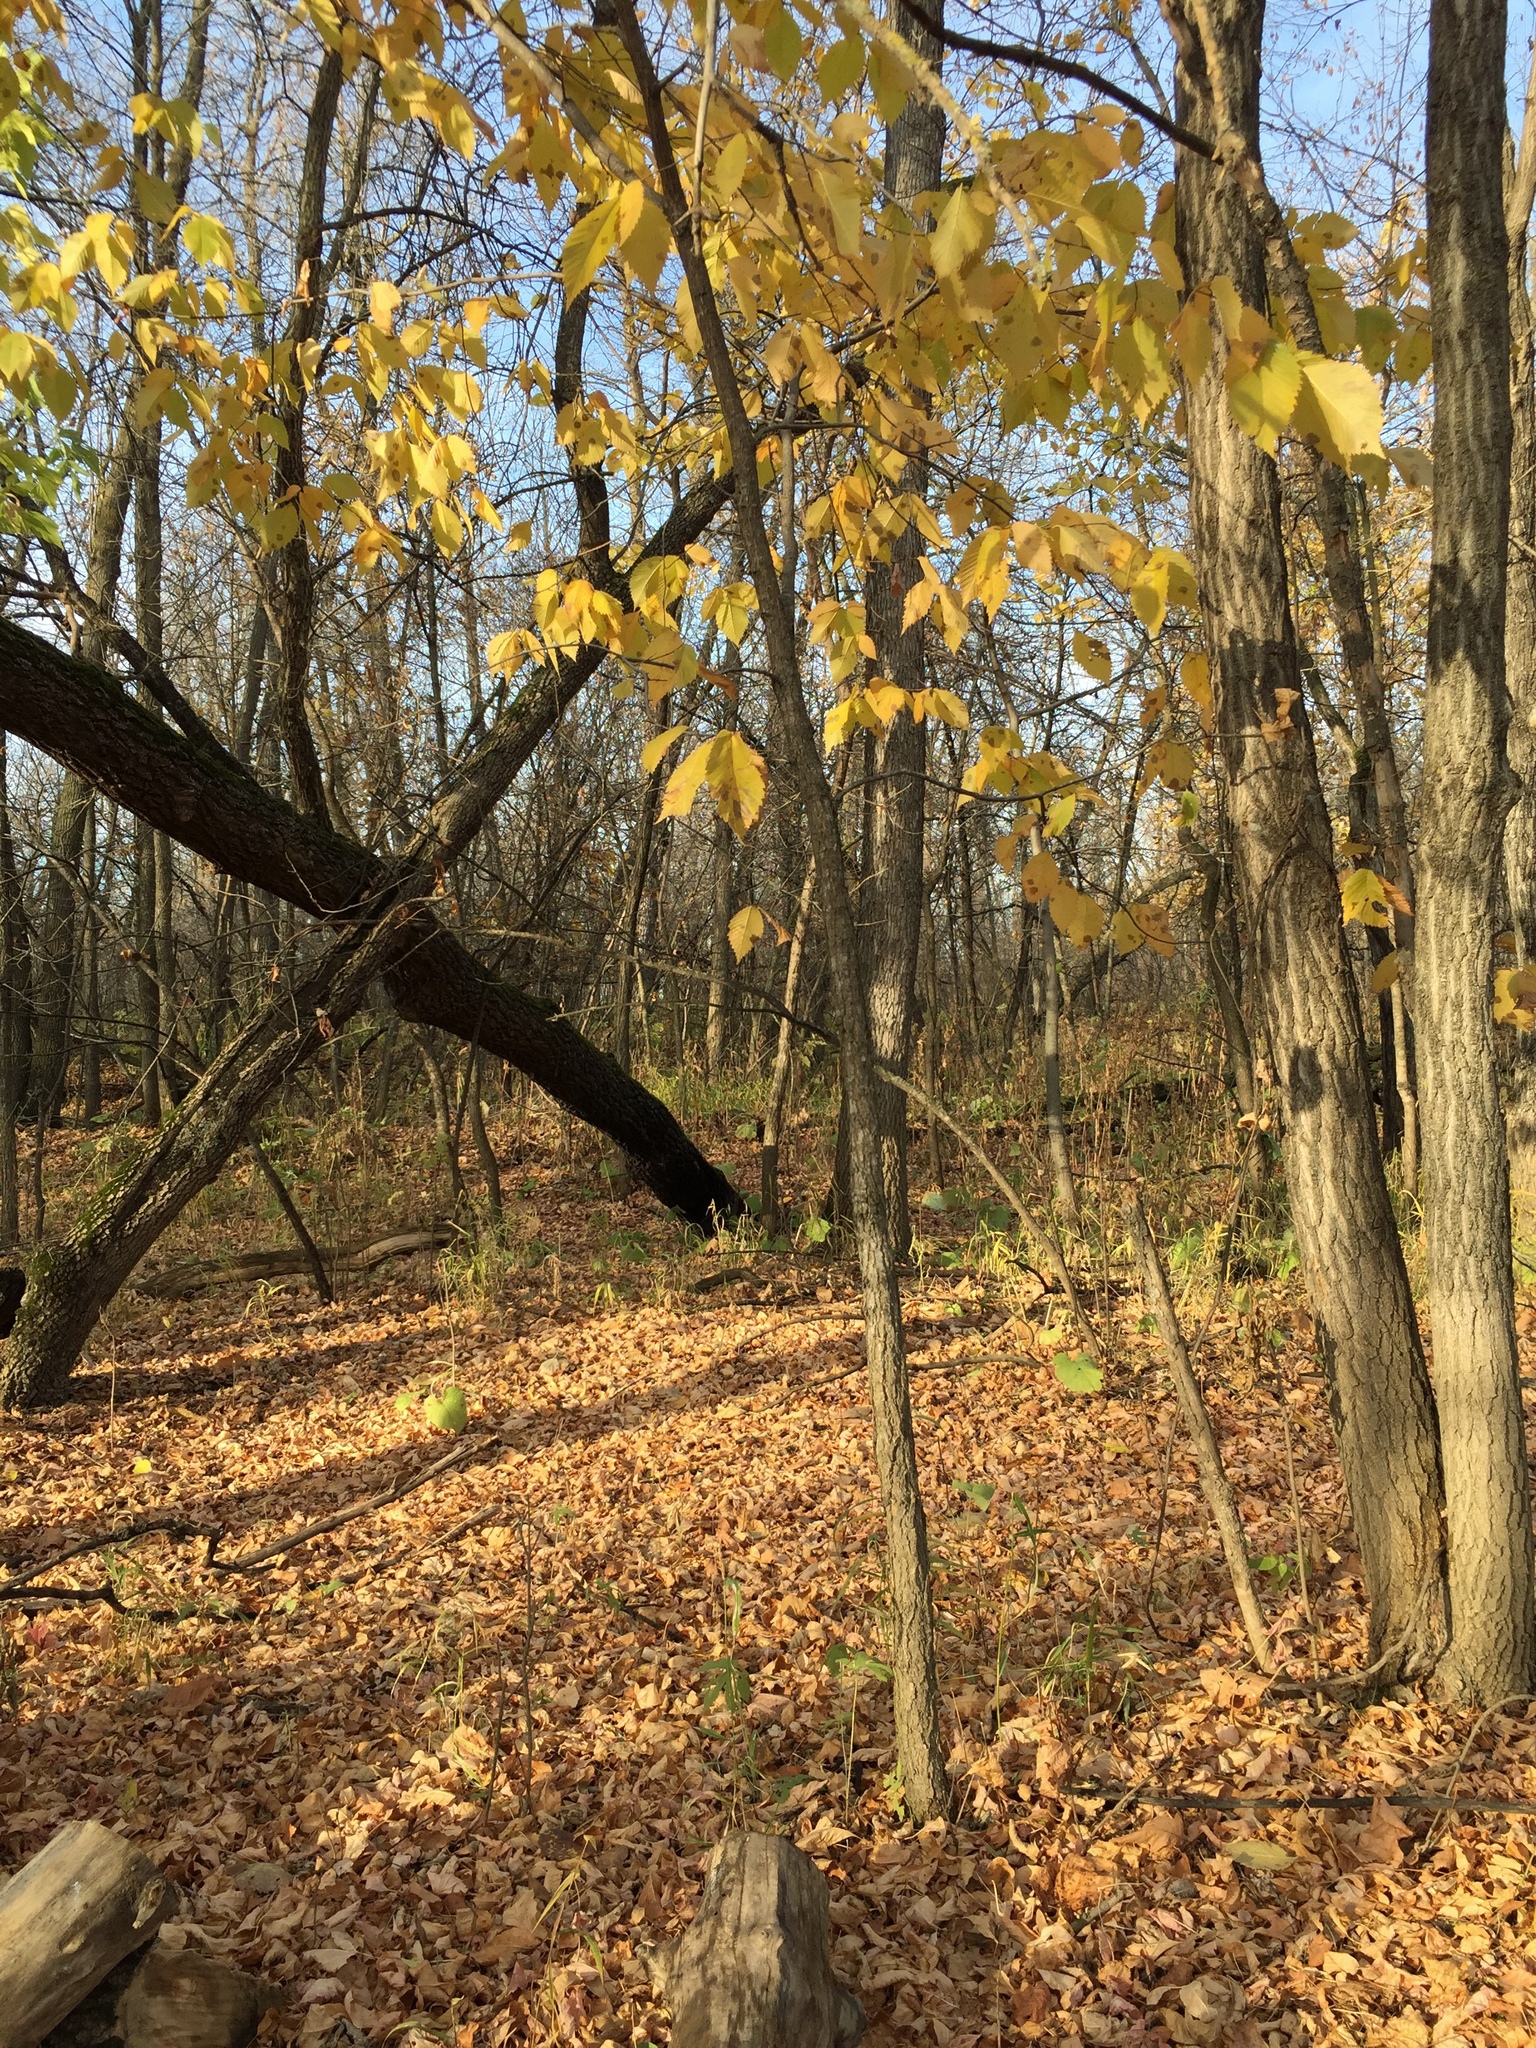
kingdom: Plantae
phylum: Tracheophyta
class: Magnoliopsida
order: Rosales
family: Ulmaceae
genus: Ulmus
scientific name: Ulmus americana
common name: American elm
